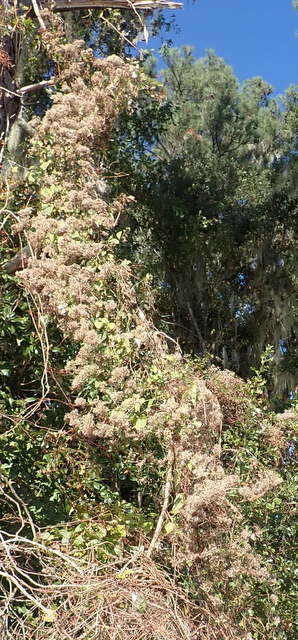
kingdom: Plantae
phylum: Tracheophyta
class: Magnoliopsida
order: Asterales
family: Asteraceae
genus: Mikania
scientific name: Mikania scandens
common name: Climbing hempvine
